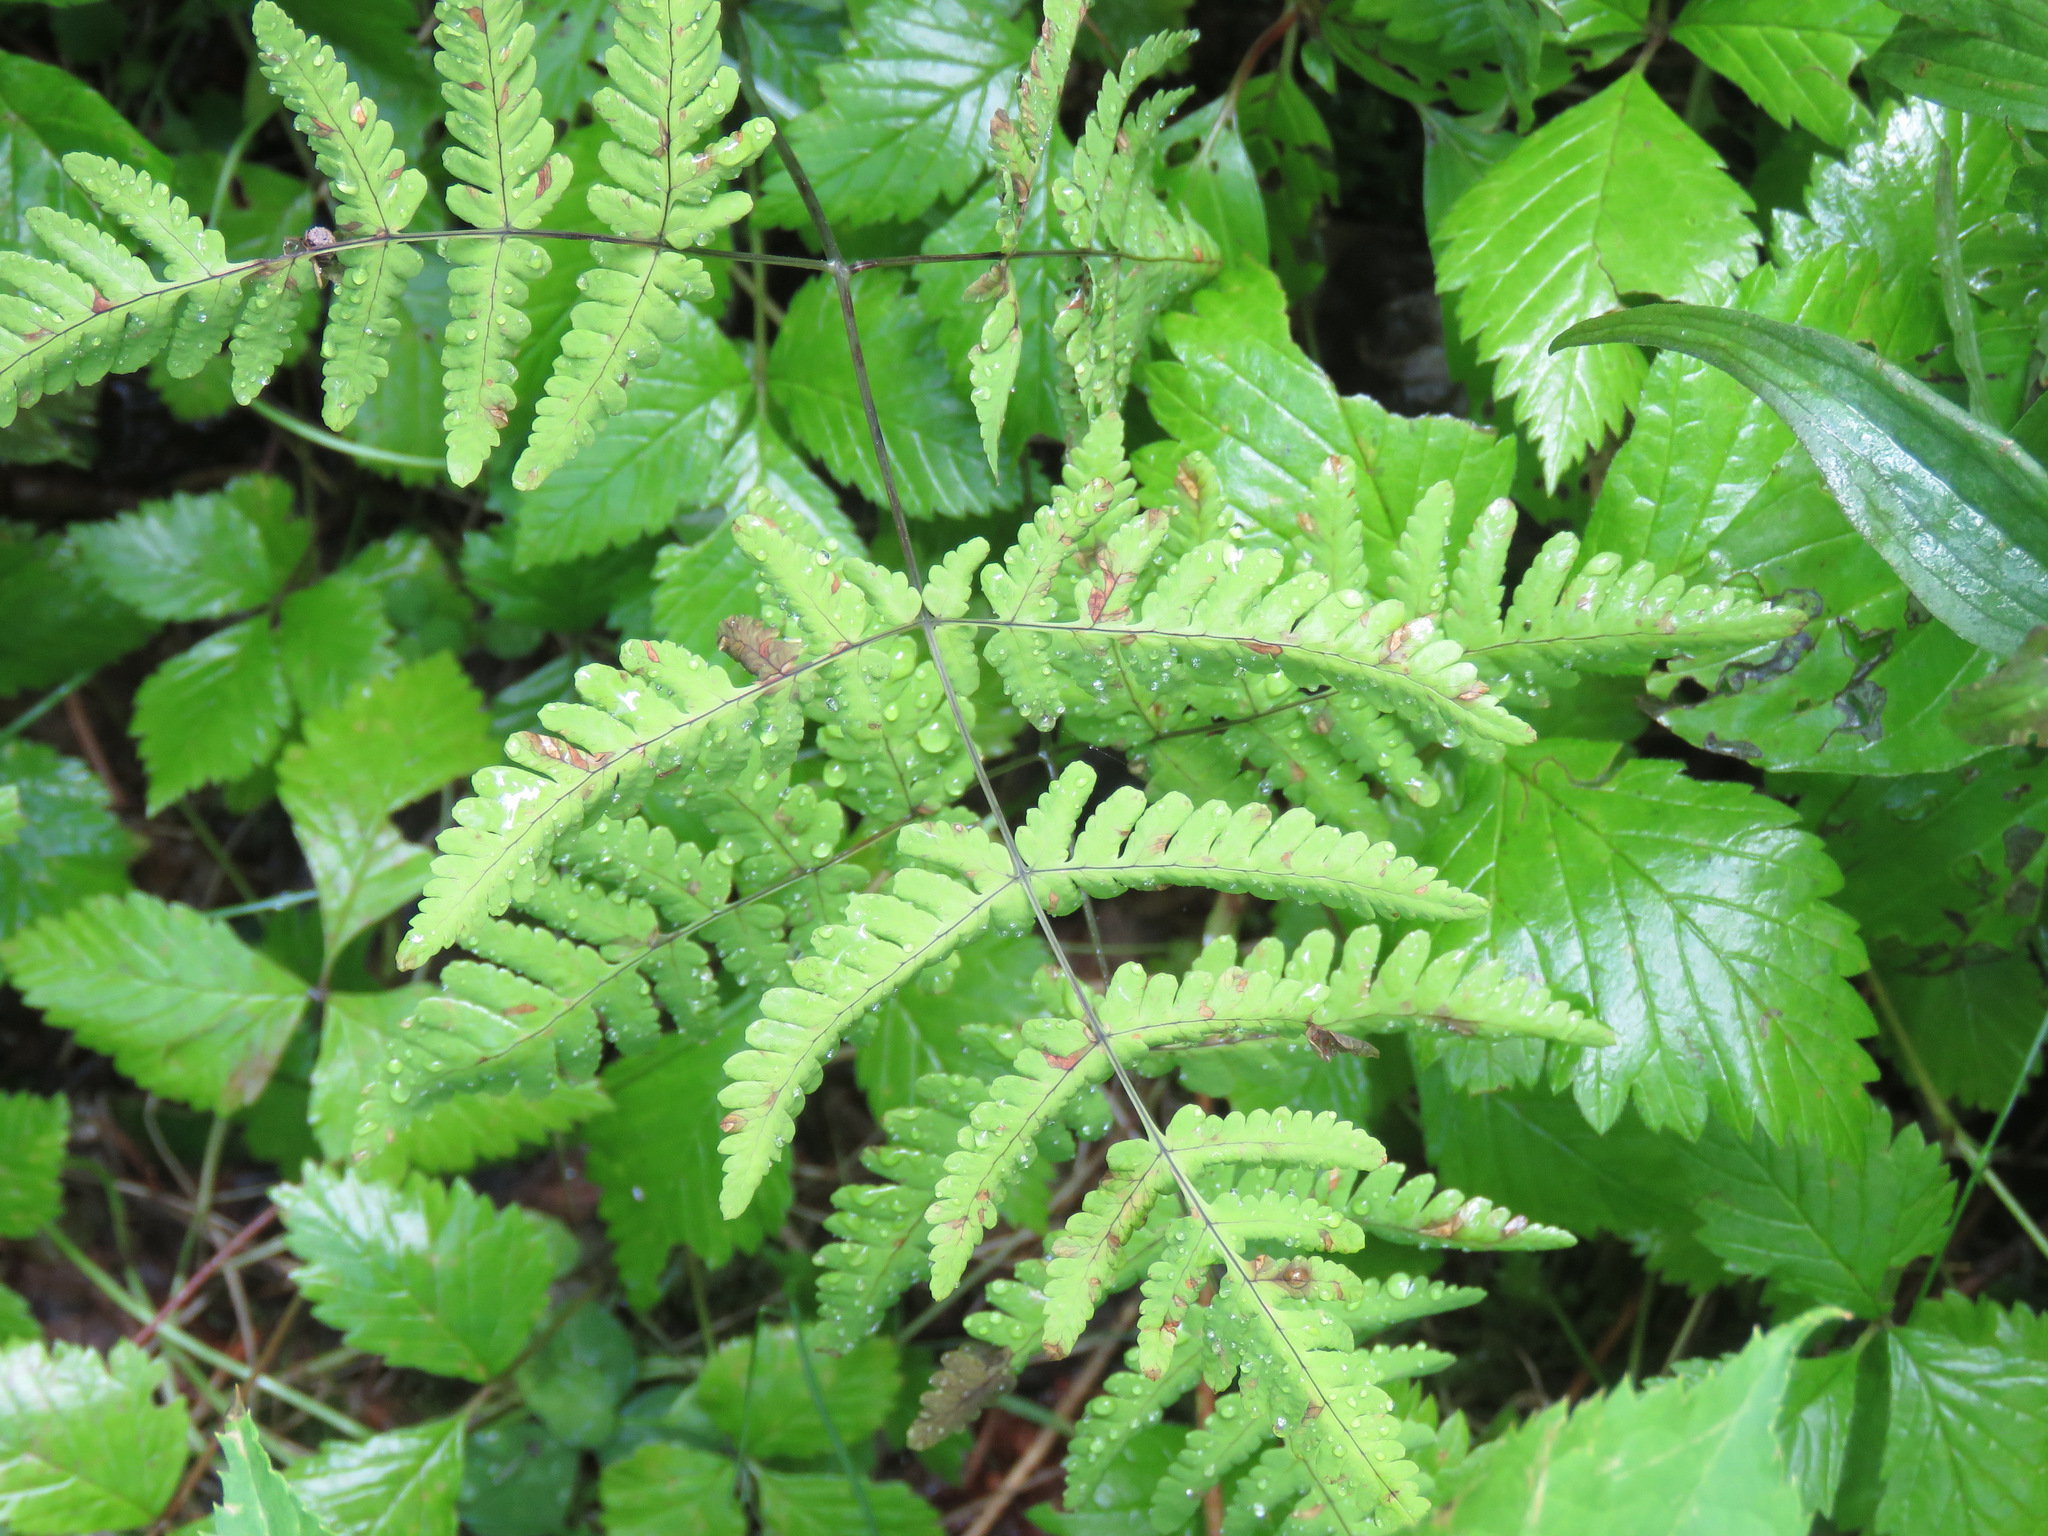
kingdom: Plantae
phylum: Tracheophyta
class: Polypodiopsida
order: Polypodiales
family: Cystopteridaceae
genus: Gymnocarpium
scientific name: Gymnocarpium dryopteris
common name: Oak fern
